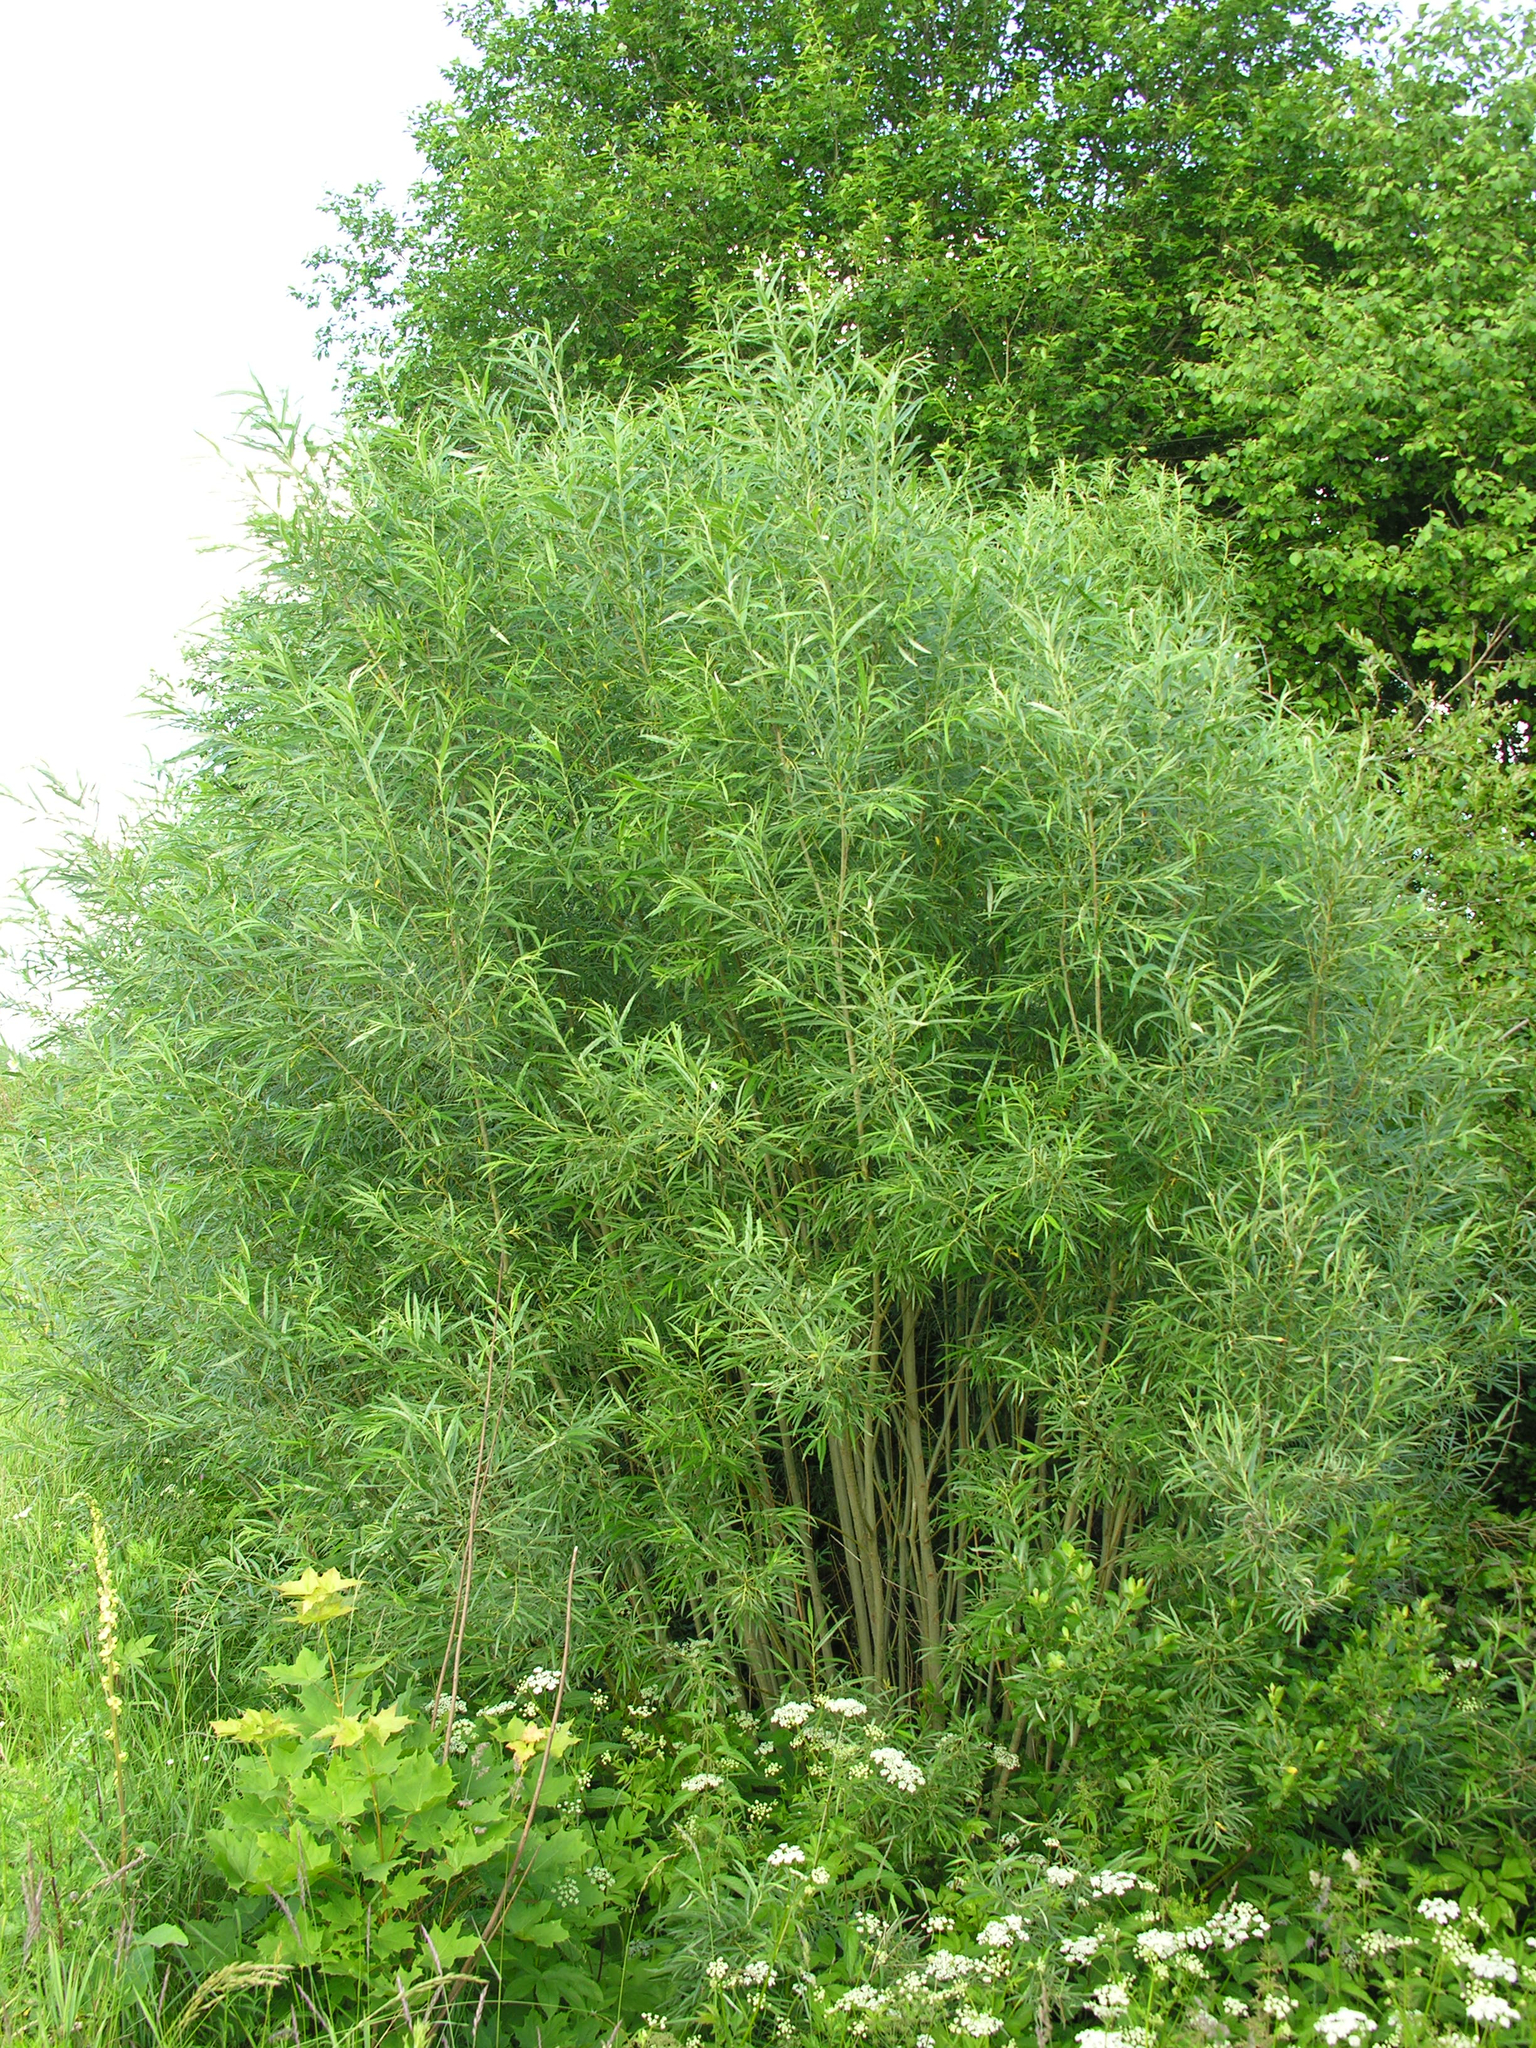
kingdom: Plantae
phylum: Tracheophyta
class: Magnoliopsida
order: Malpighiales
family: Salicaceae
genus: Salix
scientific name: Salix viminalis
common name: Osier
